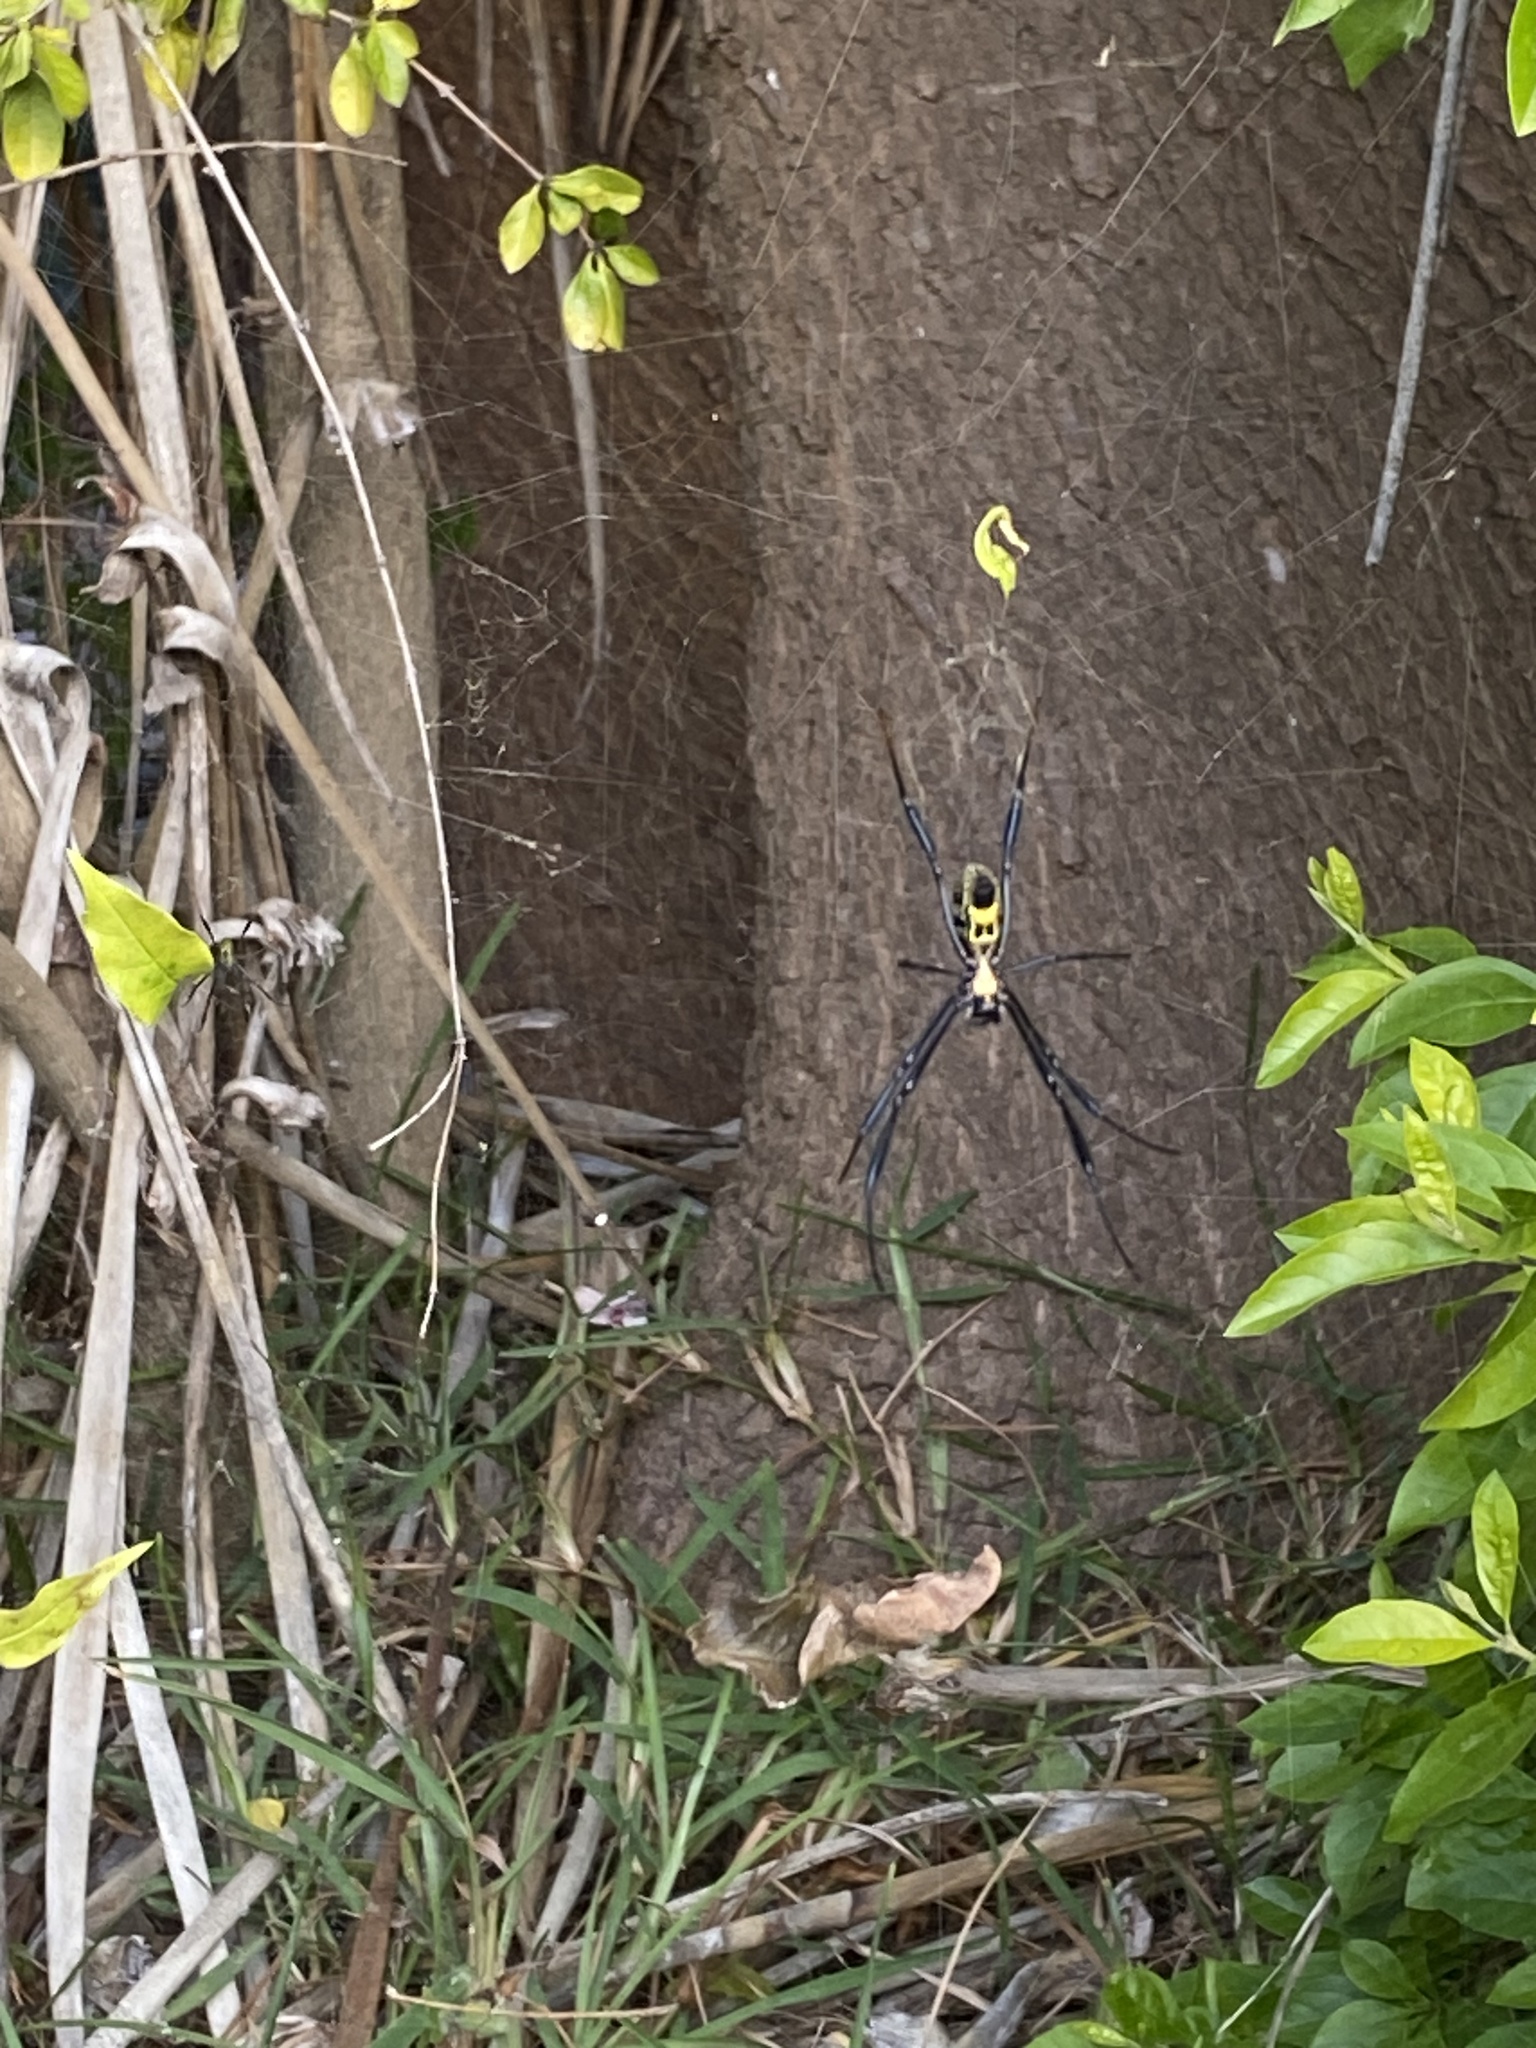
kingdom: Animalia
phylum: Arthropoda
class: Arachnida
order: Araneae
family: Araneidae
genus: Trichonephila
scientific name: Trichonephila fenestrata
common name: Hairy golden orb weaver
